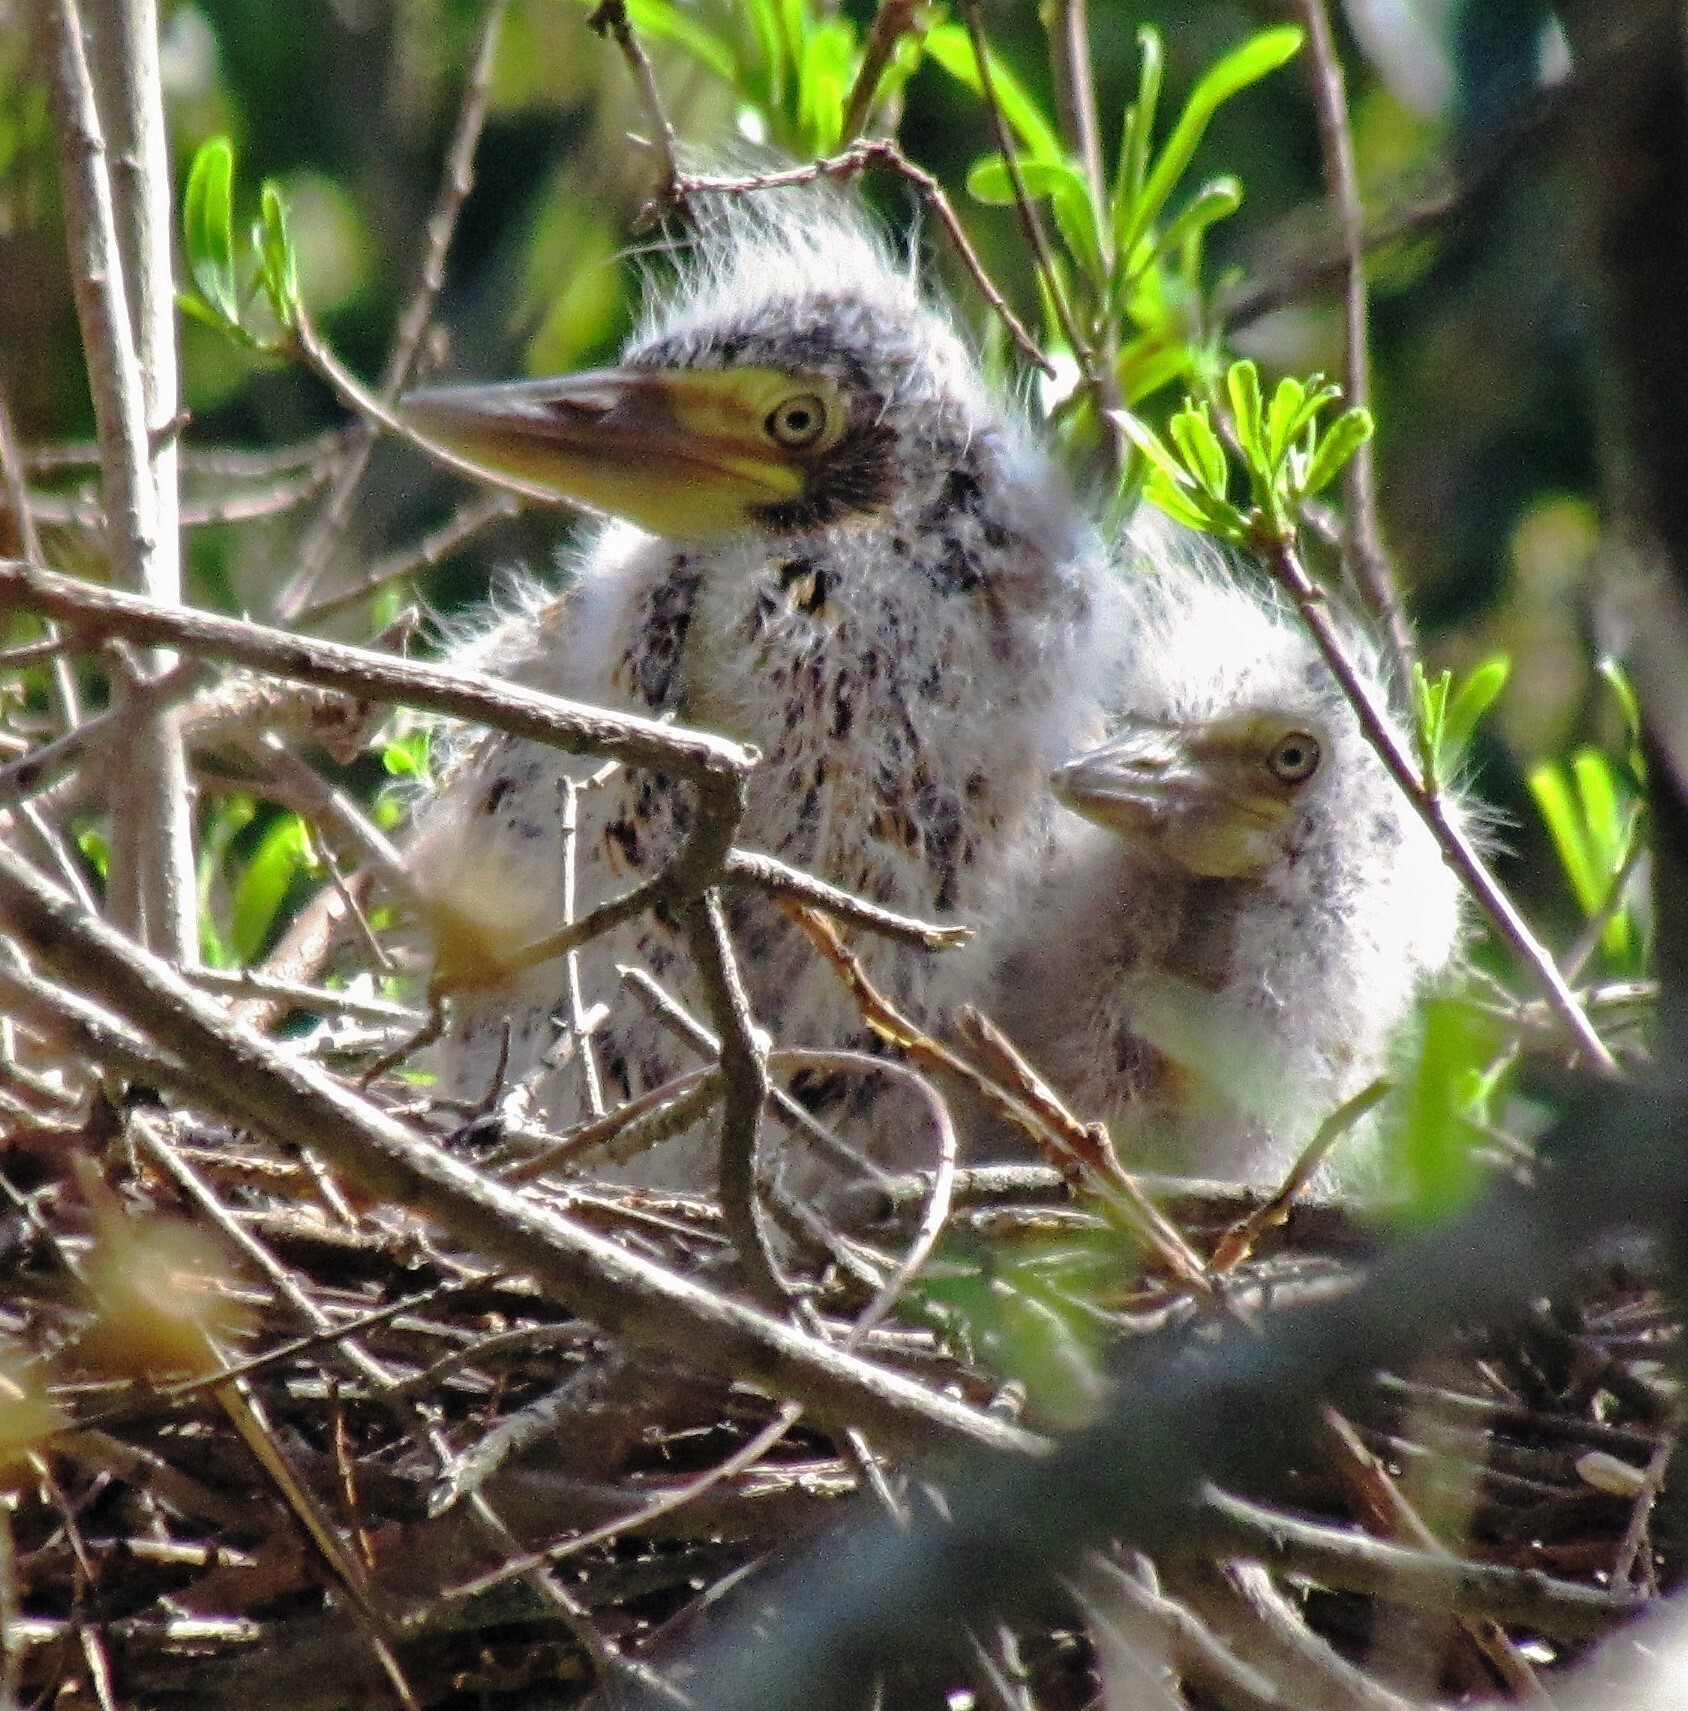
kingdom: Animalia
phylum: Chordata
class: Aves
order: Pelecaniformes
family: Ardeidae
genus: Tigrisoma
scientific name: Tigrisoma lineatum
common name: Rufescent tiger-heron
